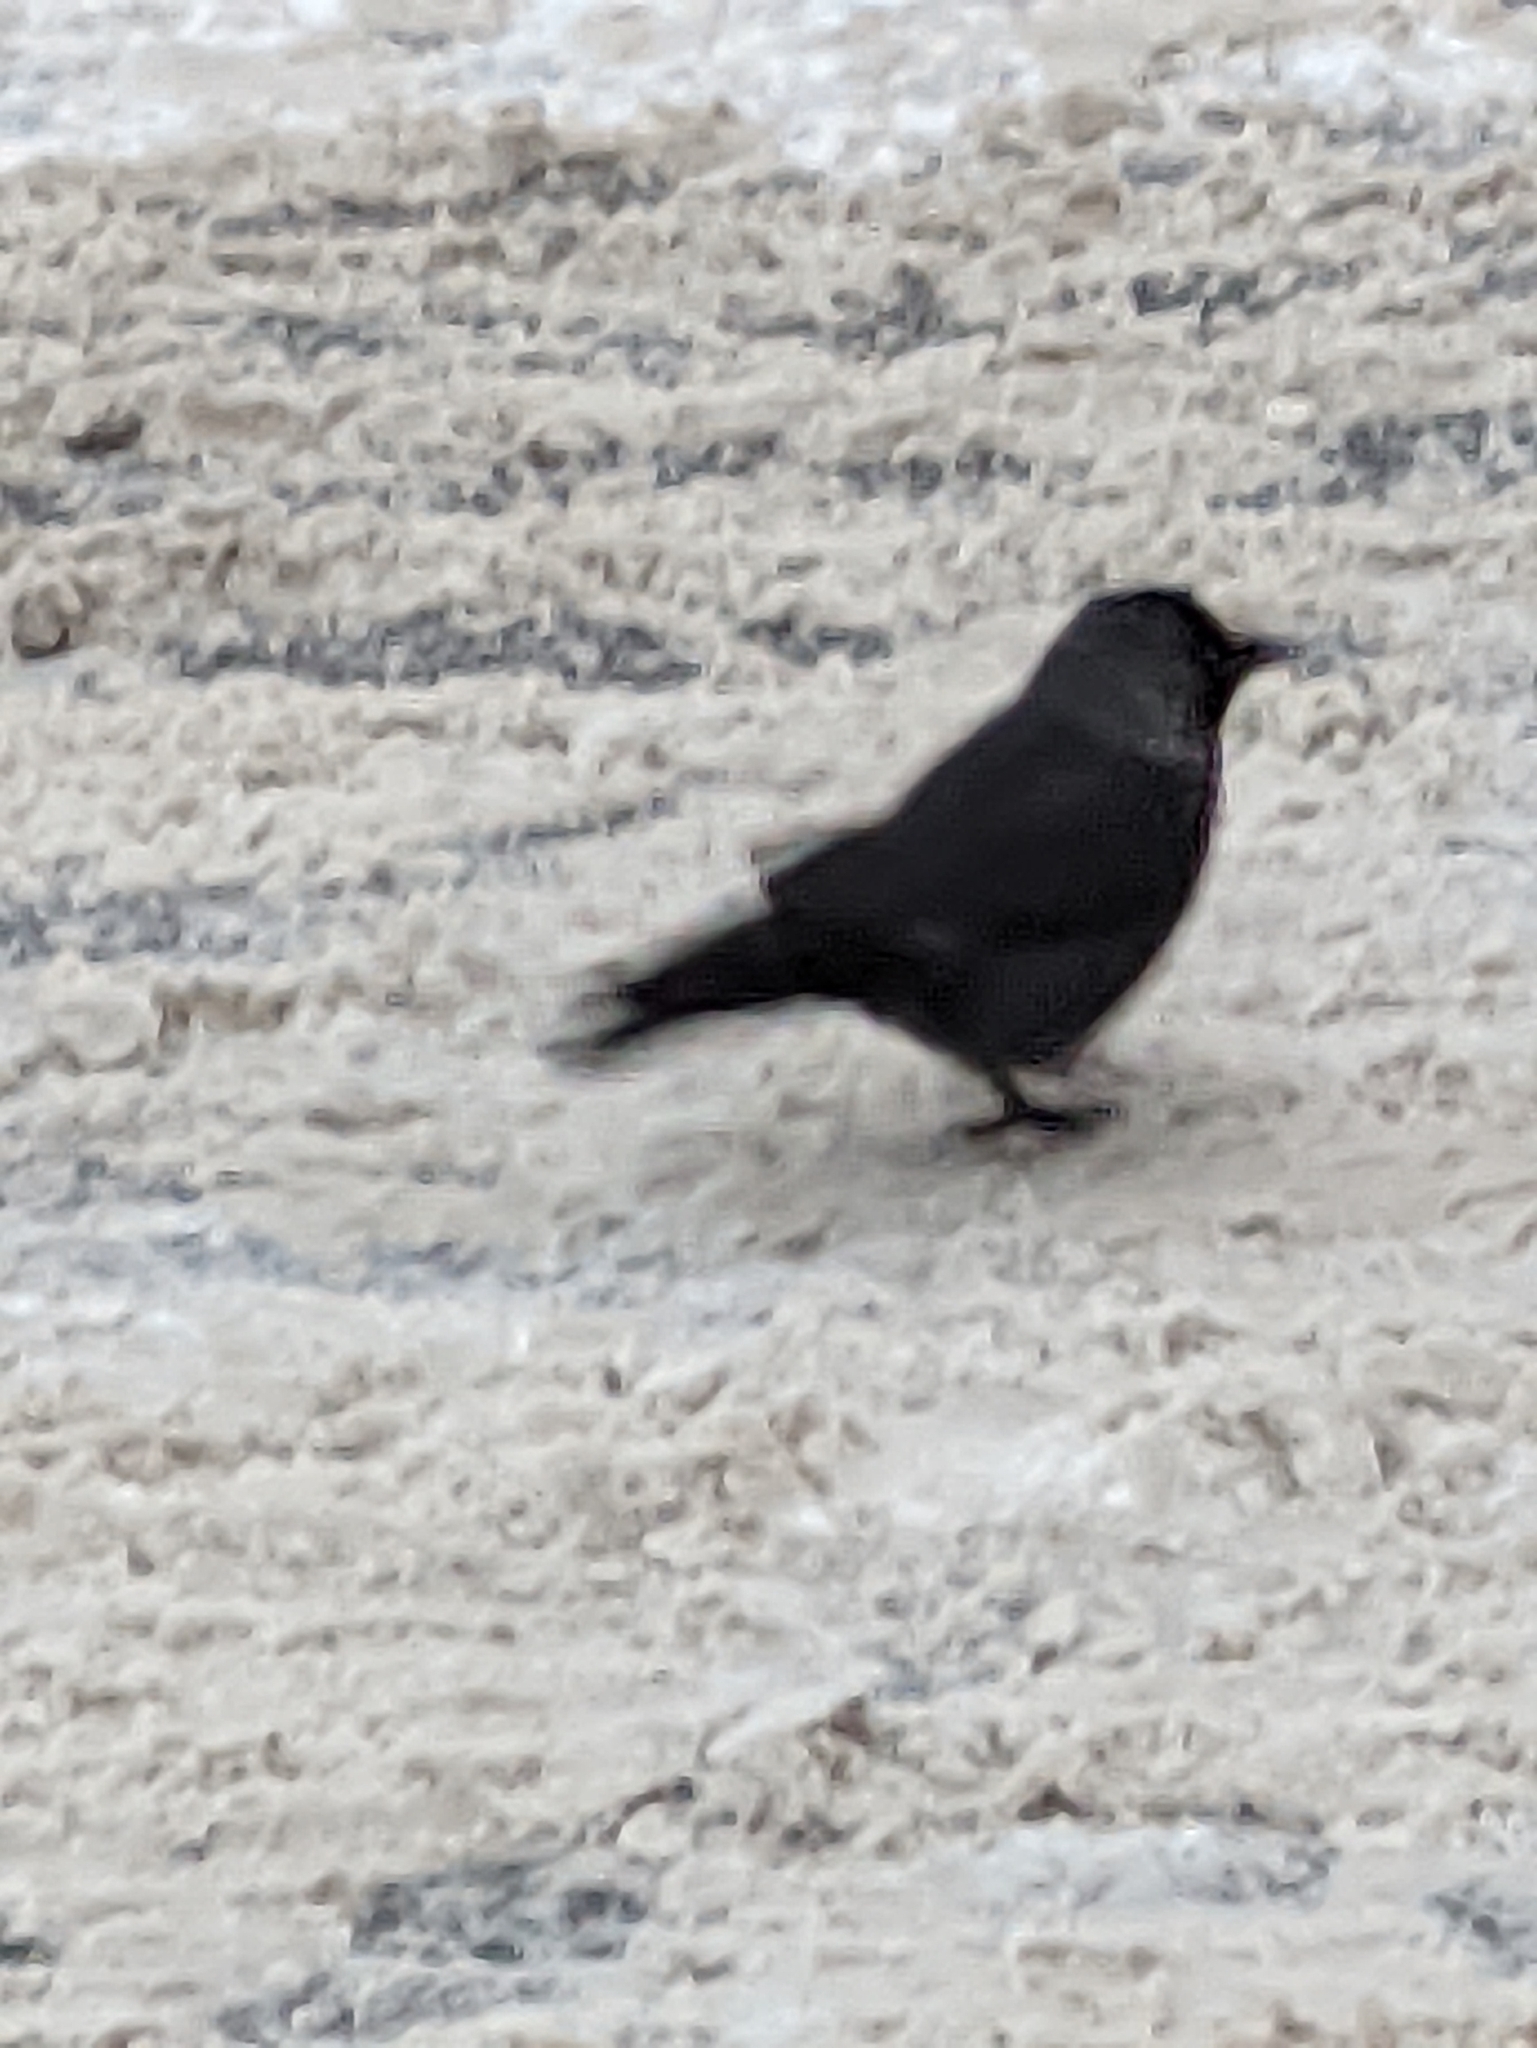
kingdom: Animalia
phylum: Chordata
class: Aves
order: Passeriformes
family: Corvidae
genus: Coloeus
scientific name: Coloeus monedula
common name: Western jackdaw
